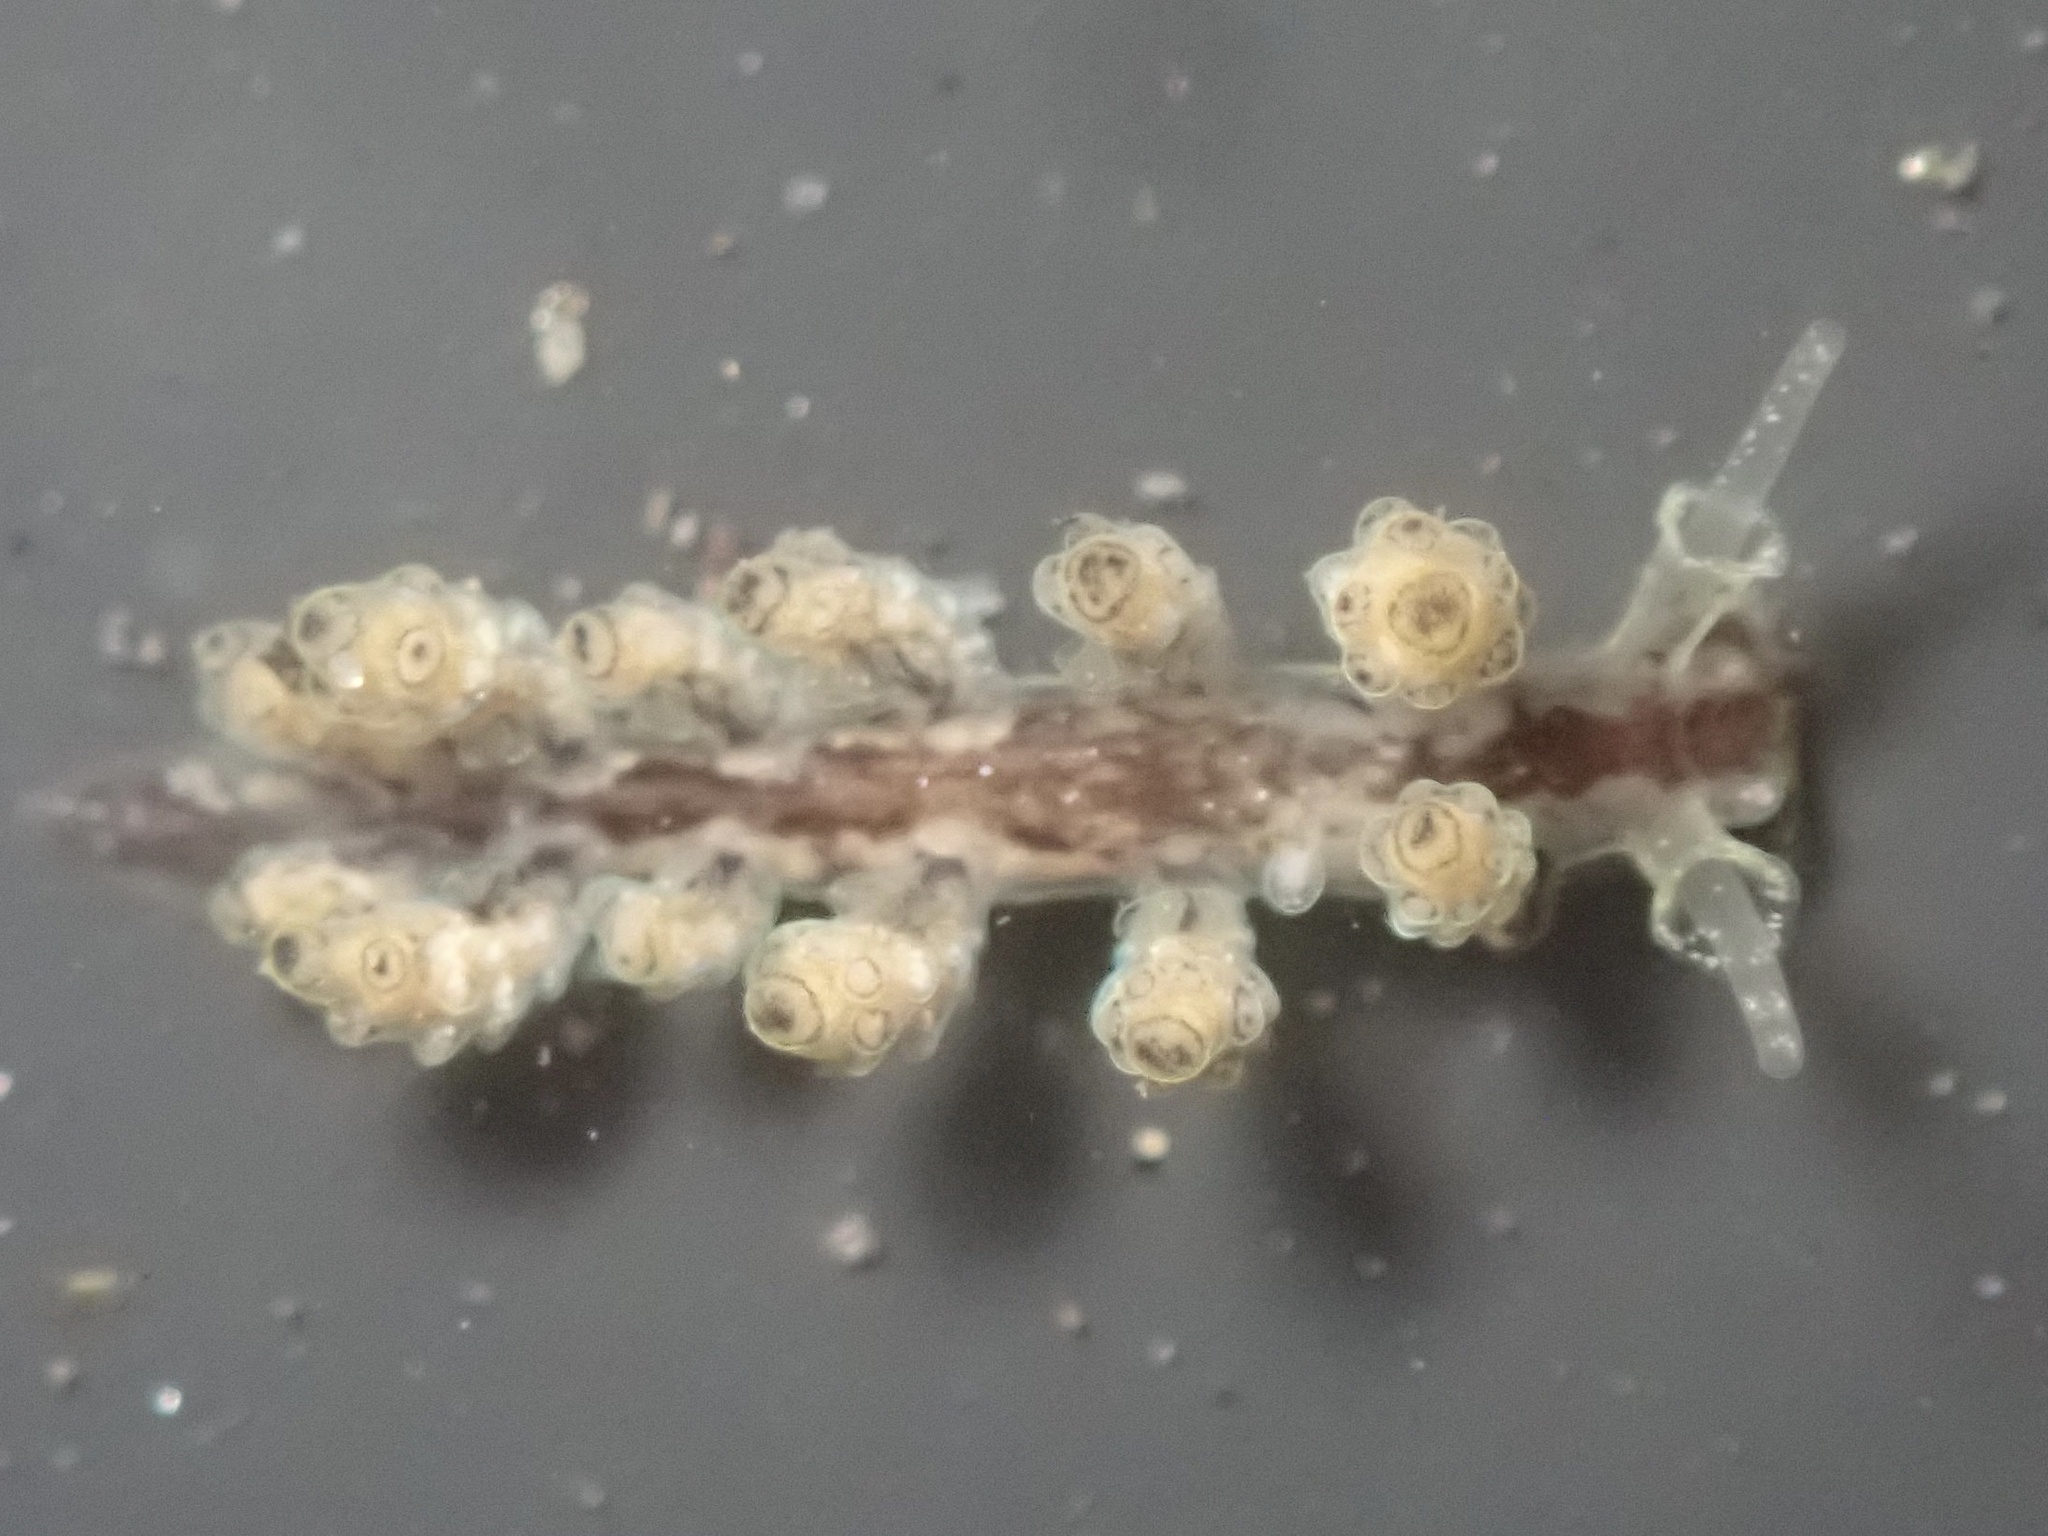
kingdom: Animalia
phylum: Mollusca
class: Gastropoda
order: Nudibranchia
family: Dotidae
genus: Doto
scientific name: Doto lancei
